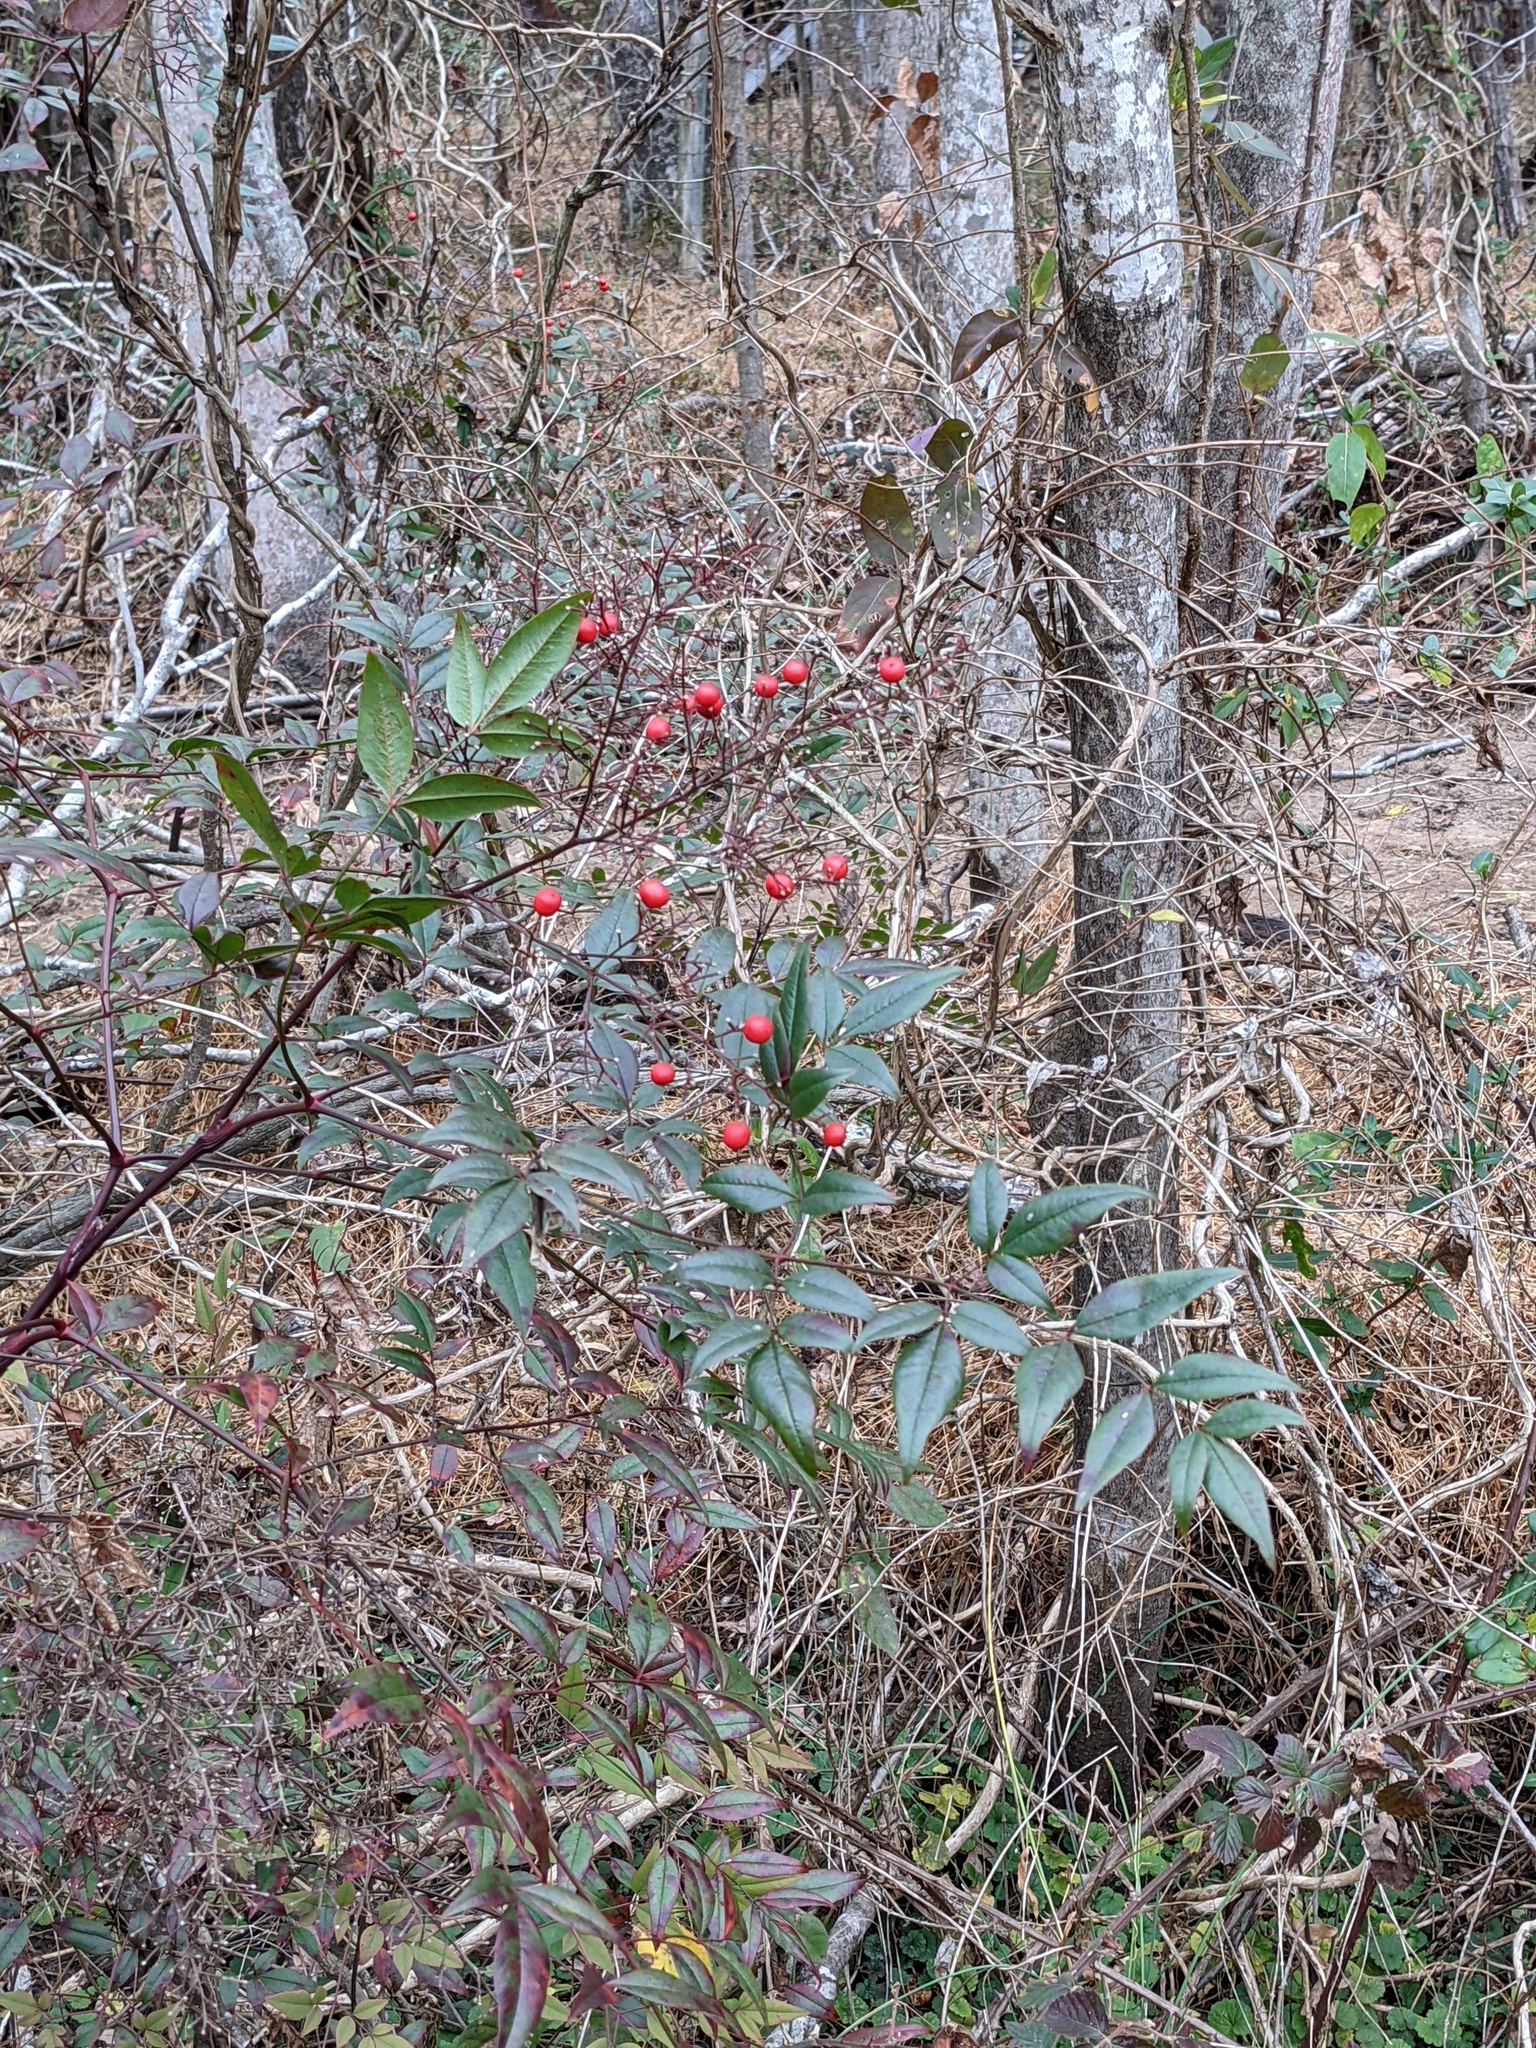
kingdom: Plantae
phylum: Tracheophyta
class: Magnoliopsida
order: Ranunculales
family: Berberidaceae
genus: Nandina
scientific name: Nandina domestica
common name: Sacred bamboo
